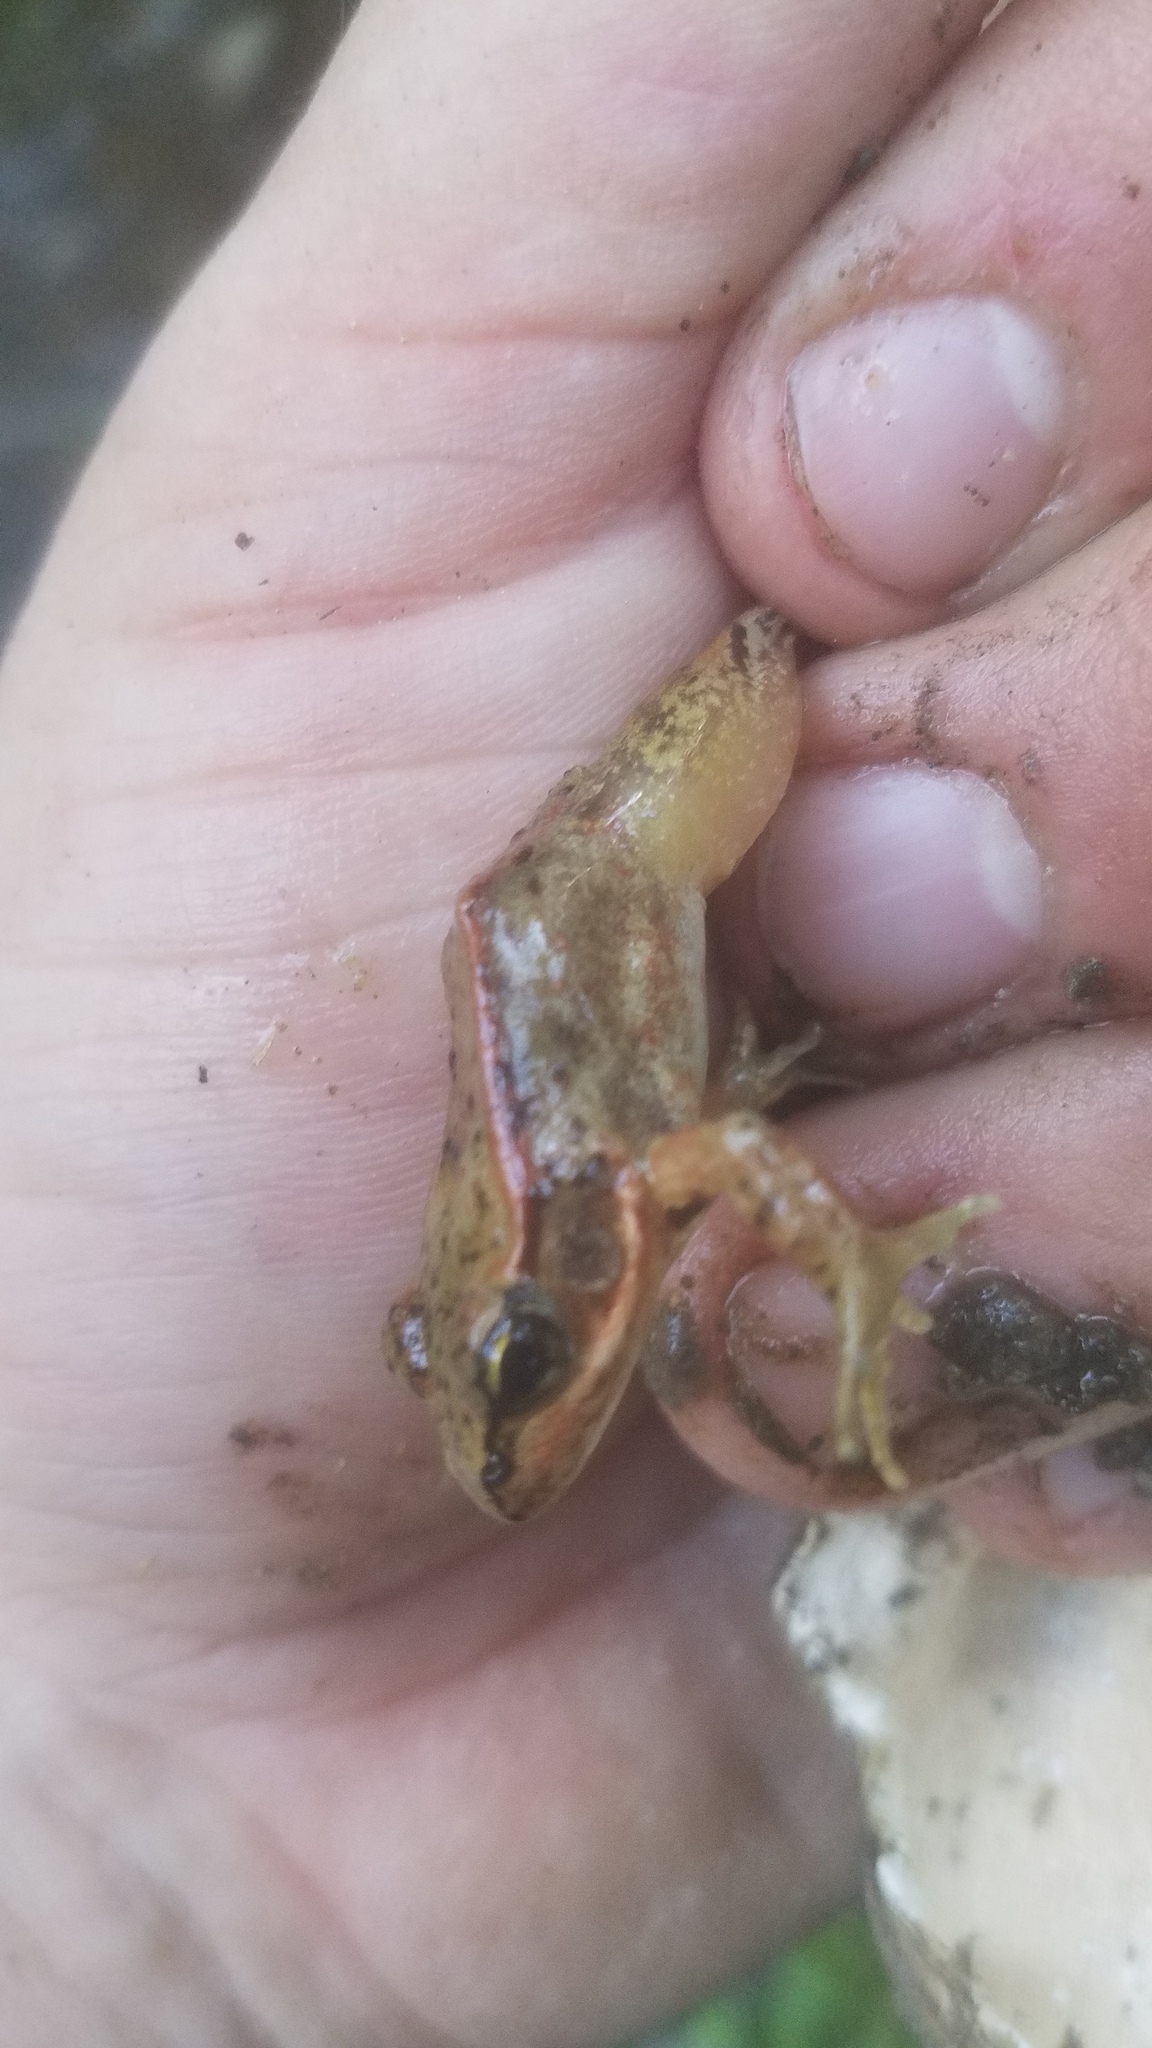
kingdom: Animalia
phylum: Chordata
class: Amphibia
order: Anura
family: Ranidae
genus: Rana
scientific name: Rana aurora
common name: Red-legged frog
